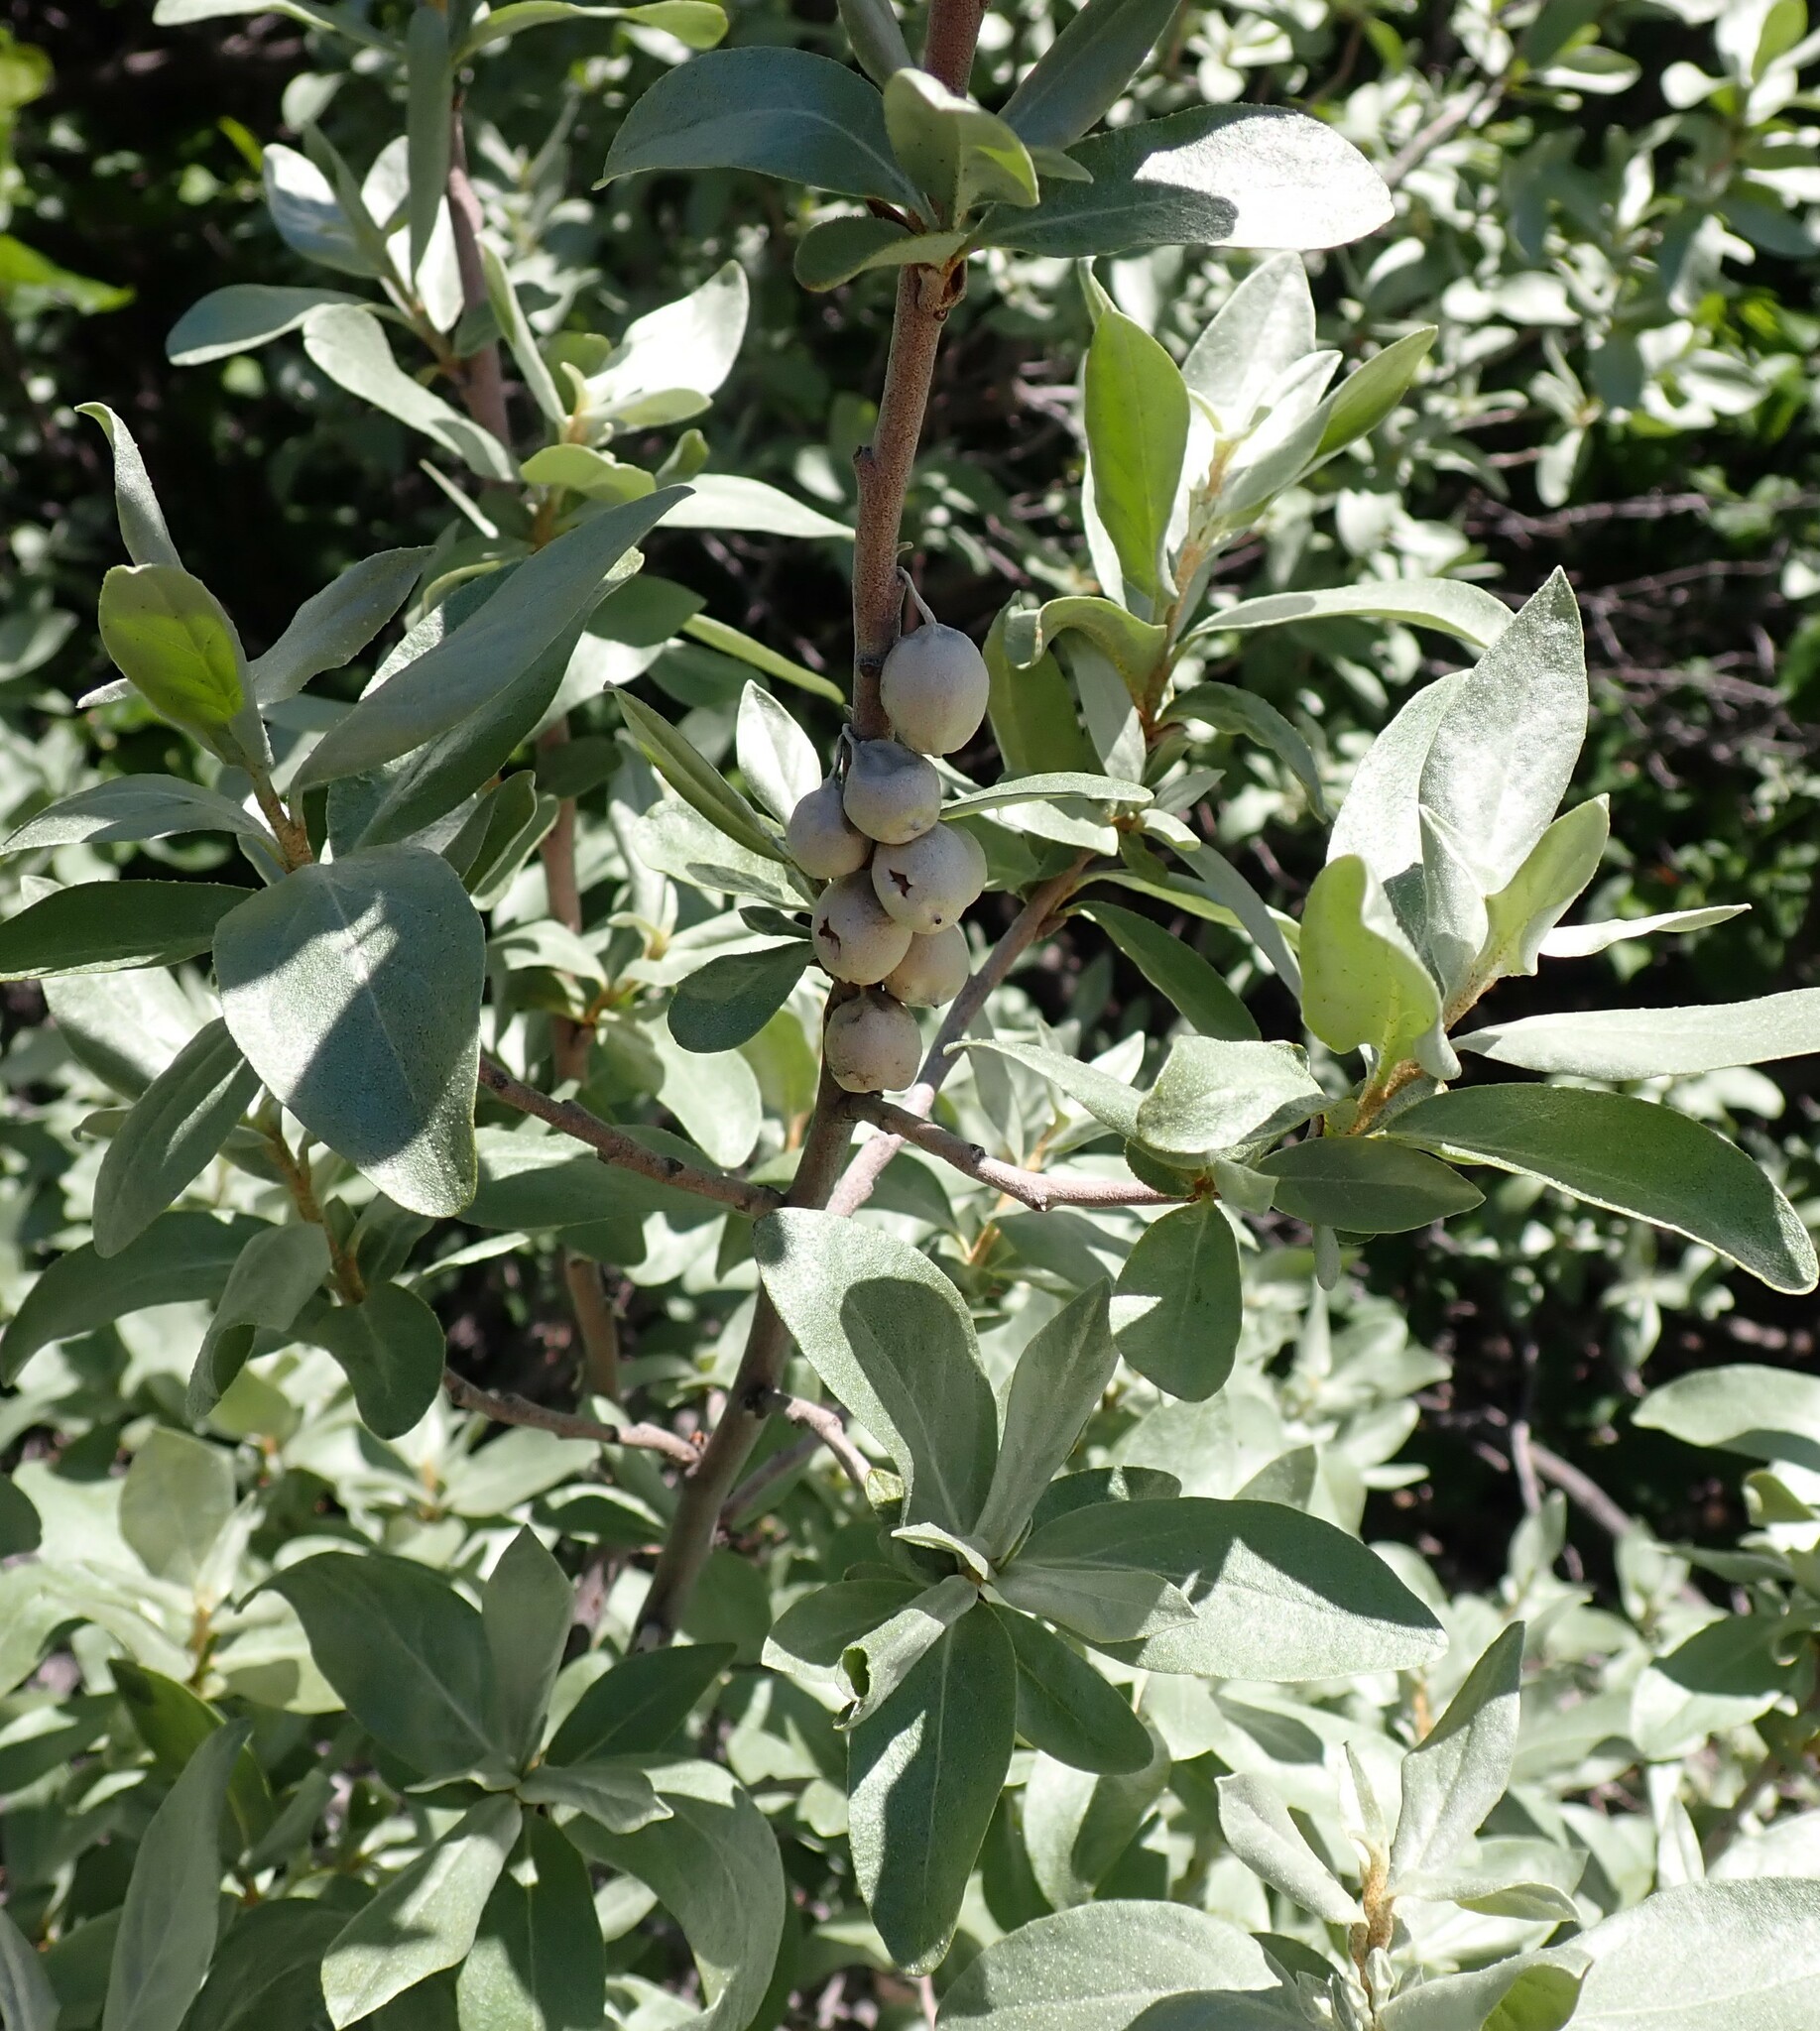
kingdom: Plantae
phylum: Tracheophyta
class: Magnoliopsida
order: Rosales
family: Elaeagnaceae
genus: Elaeagnus
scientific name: Elaeagnus commutata
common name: Silverberry
